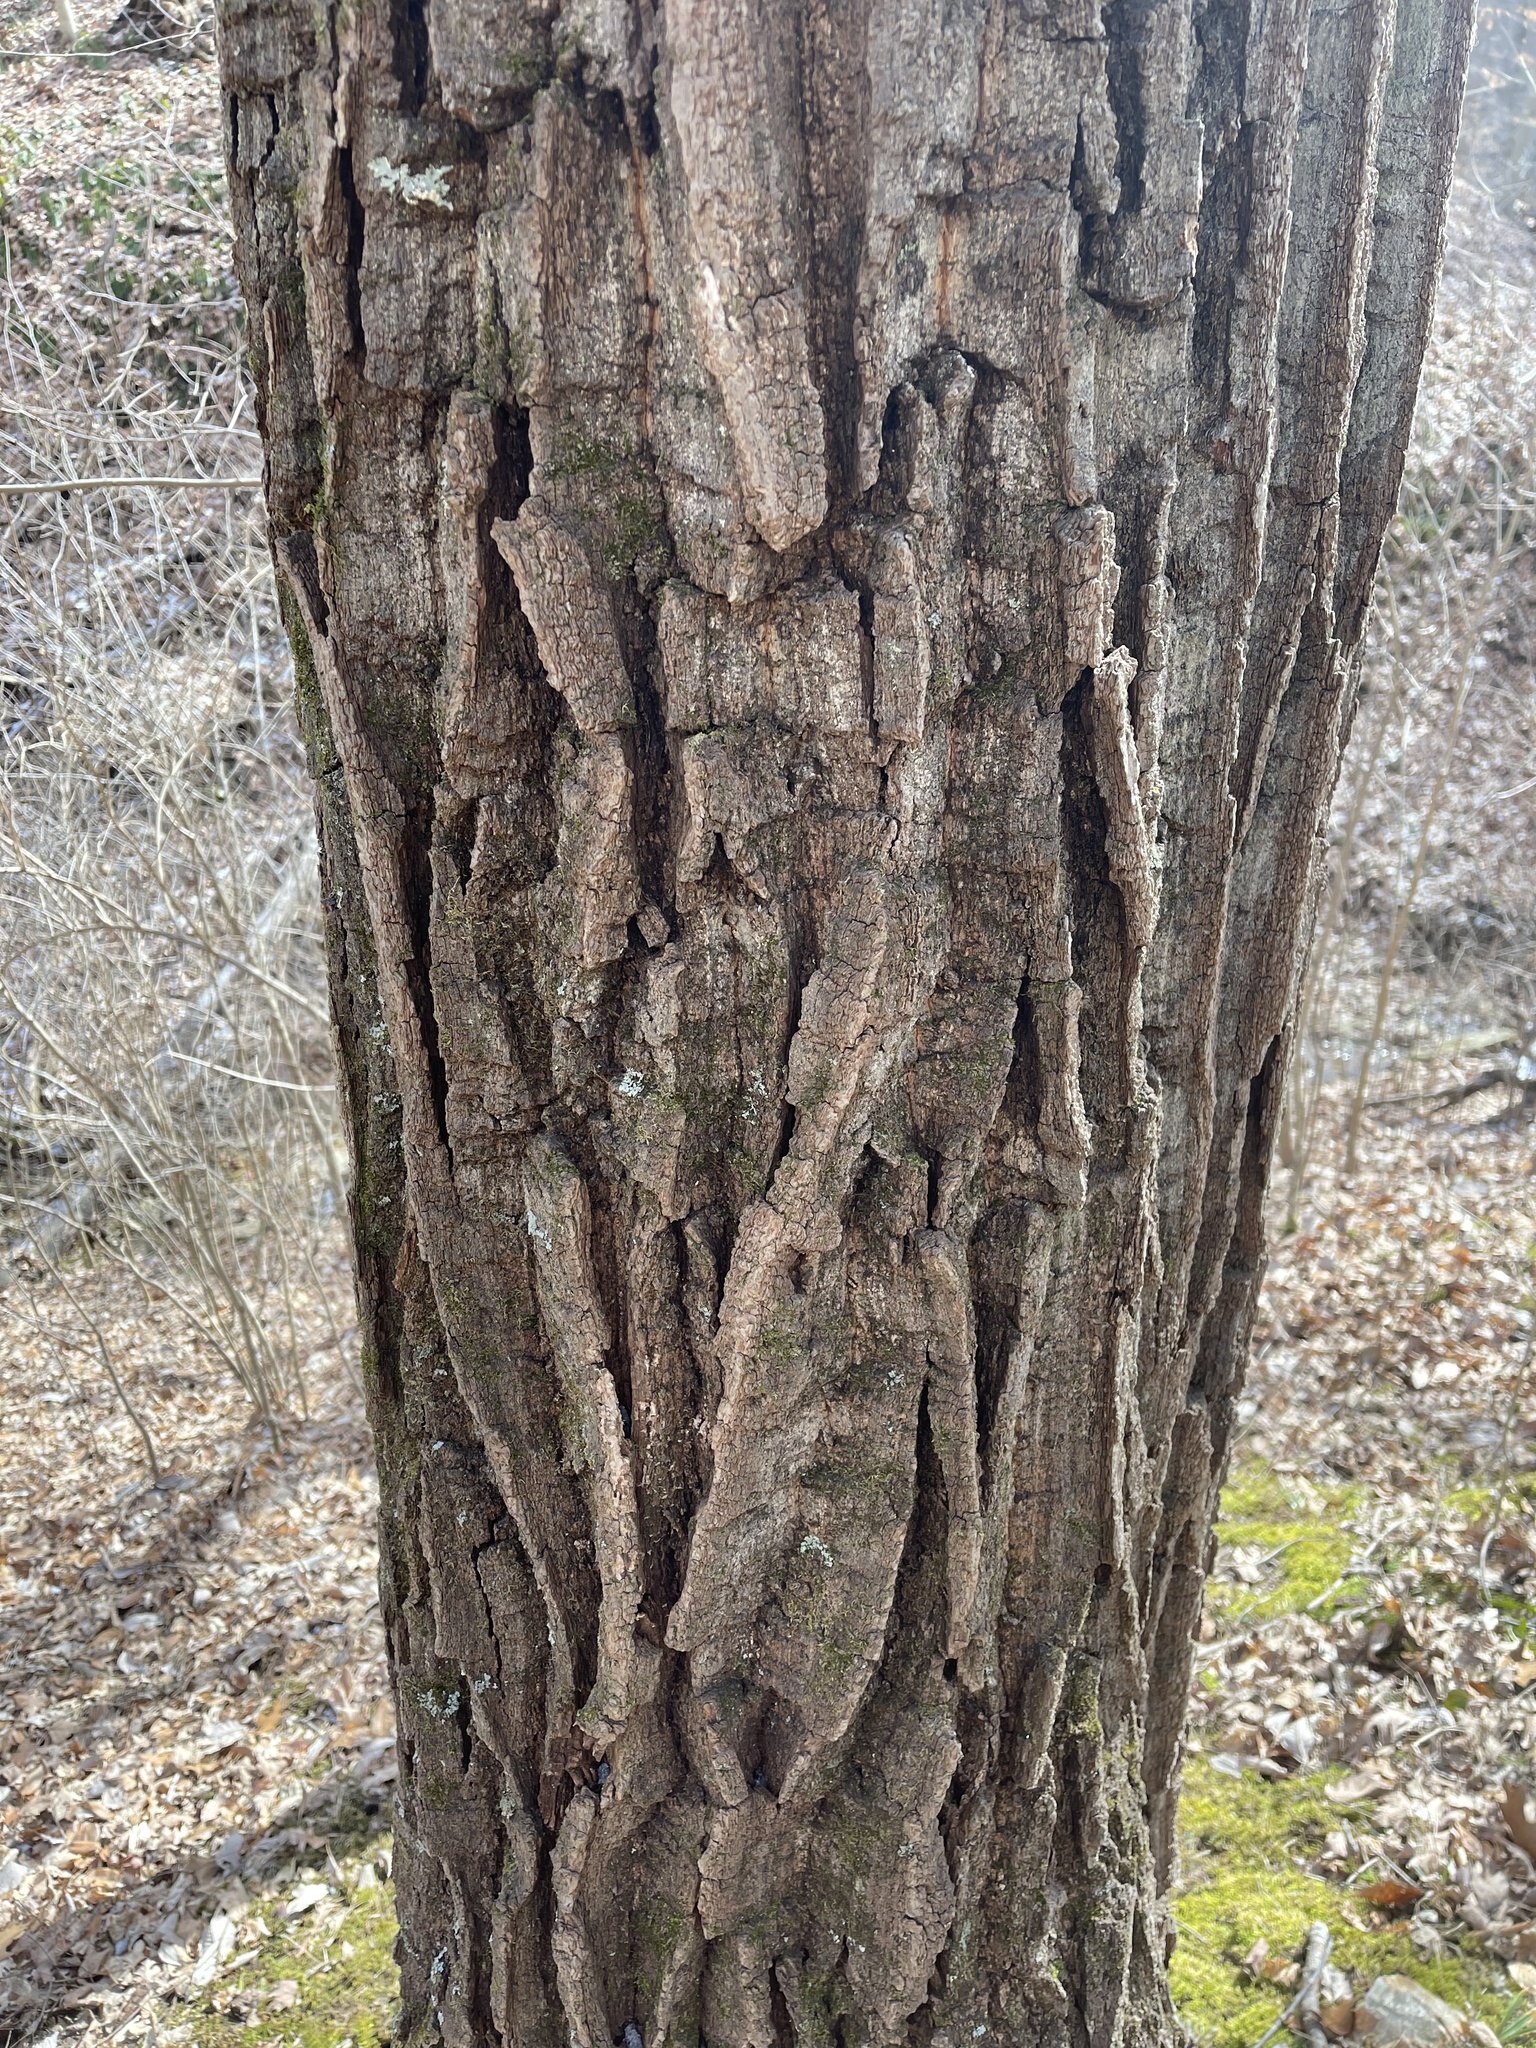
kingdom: Plantae
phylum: Tracheophyta
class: Magnoliopsida
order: Fagales
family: Fagaceae
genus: Quercus
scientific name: Quercus montana
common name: Chestnut oak
